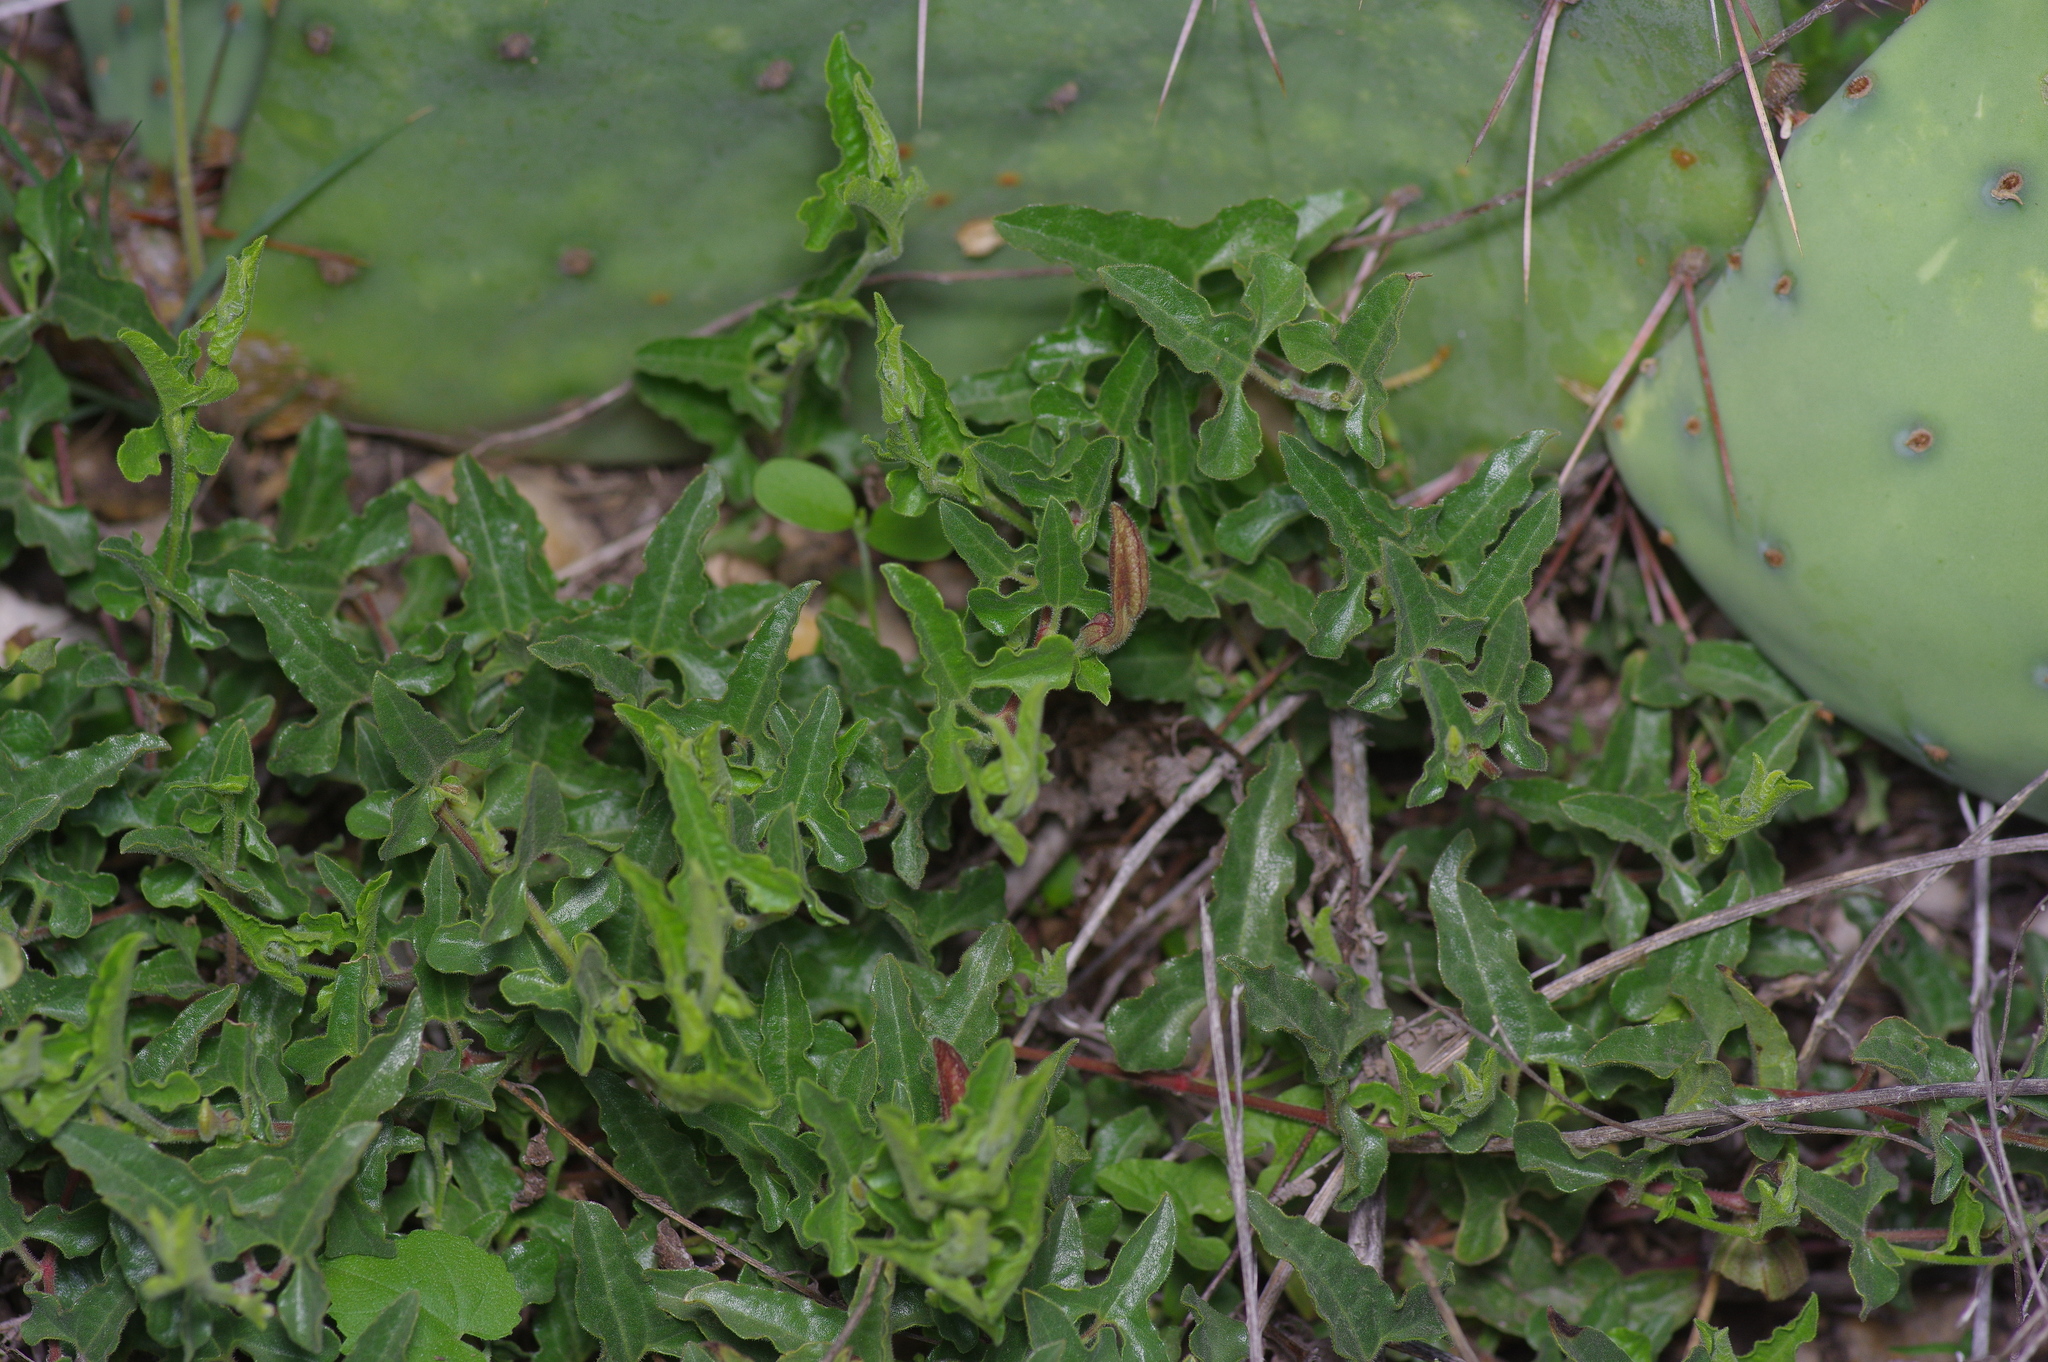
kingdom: Plantae
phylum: Tracheophyta
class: Magnoliopsida
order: Piperales
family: Aristolochiaceae
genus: Aristolochia
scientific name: Aristolochia coryi
